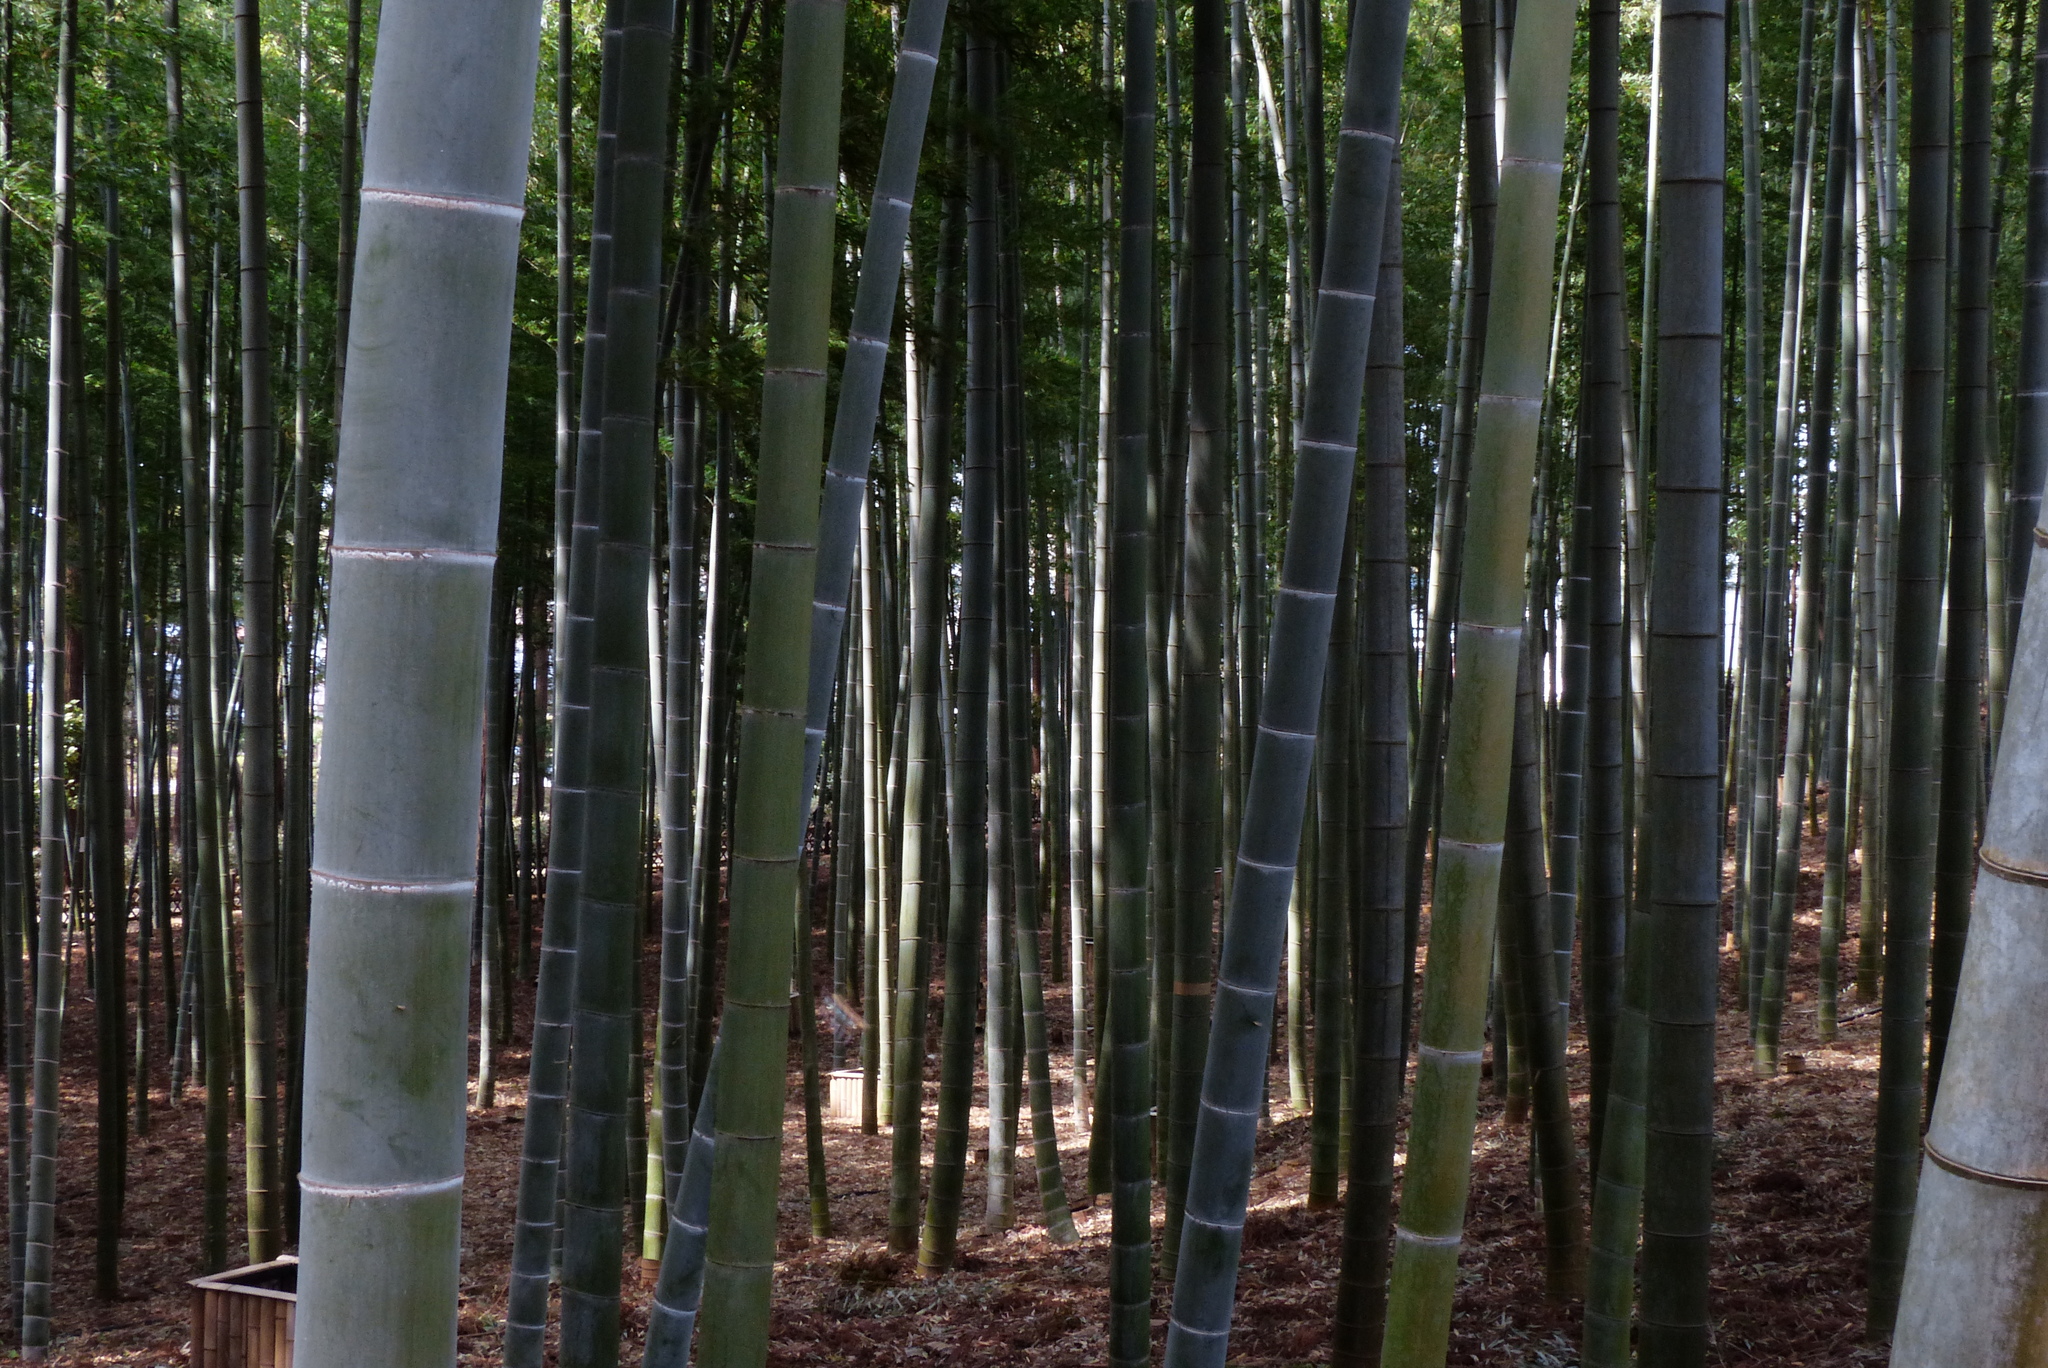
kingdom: Plantae
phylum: Tracheophyta
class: Liliopsida
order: Poales
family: Poaceae
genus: Phyllostachys
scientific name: Phyllostachys edulis
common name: Tortoise shell bamboo
